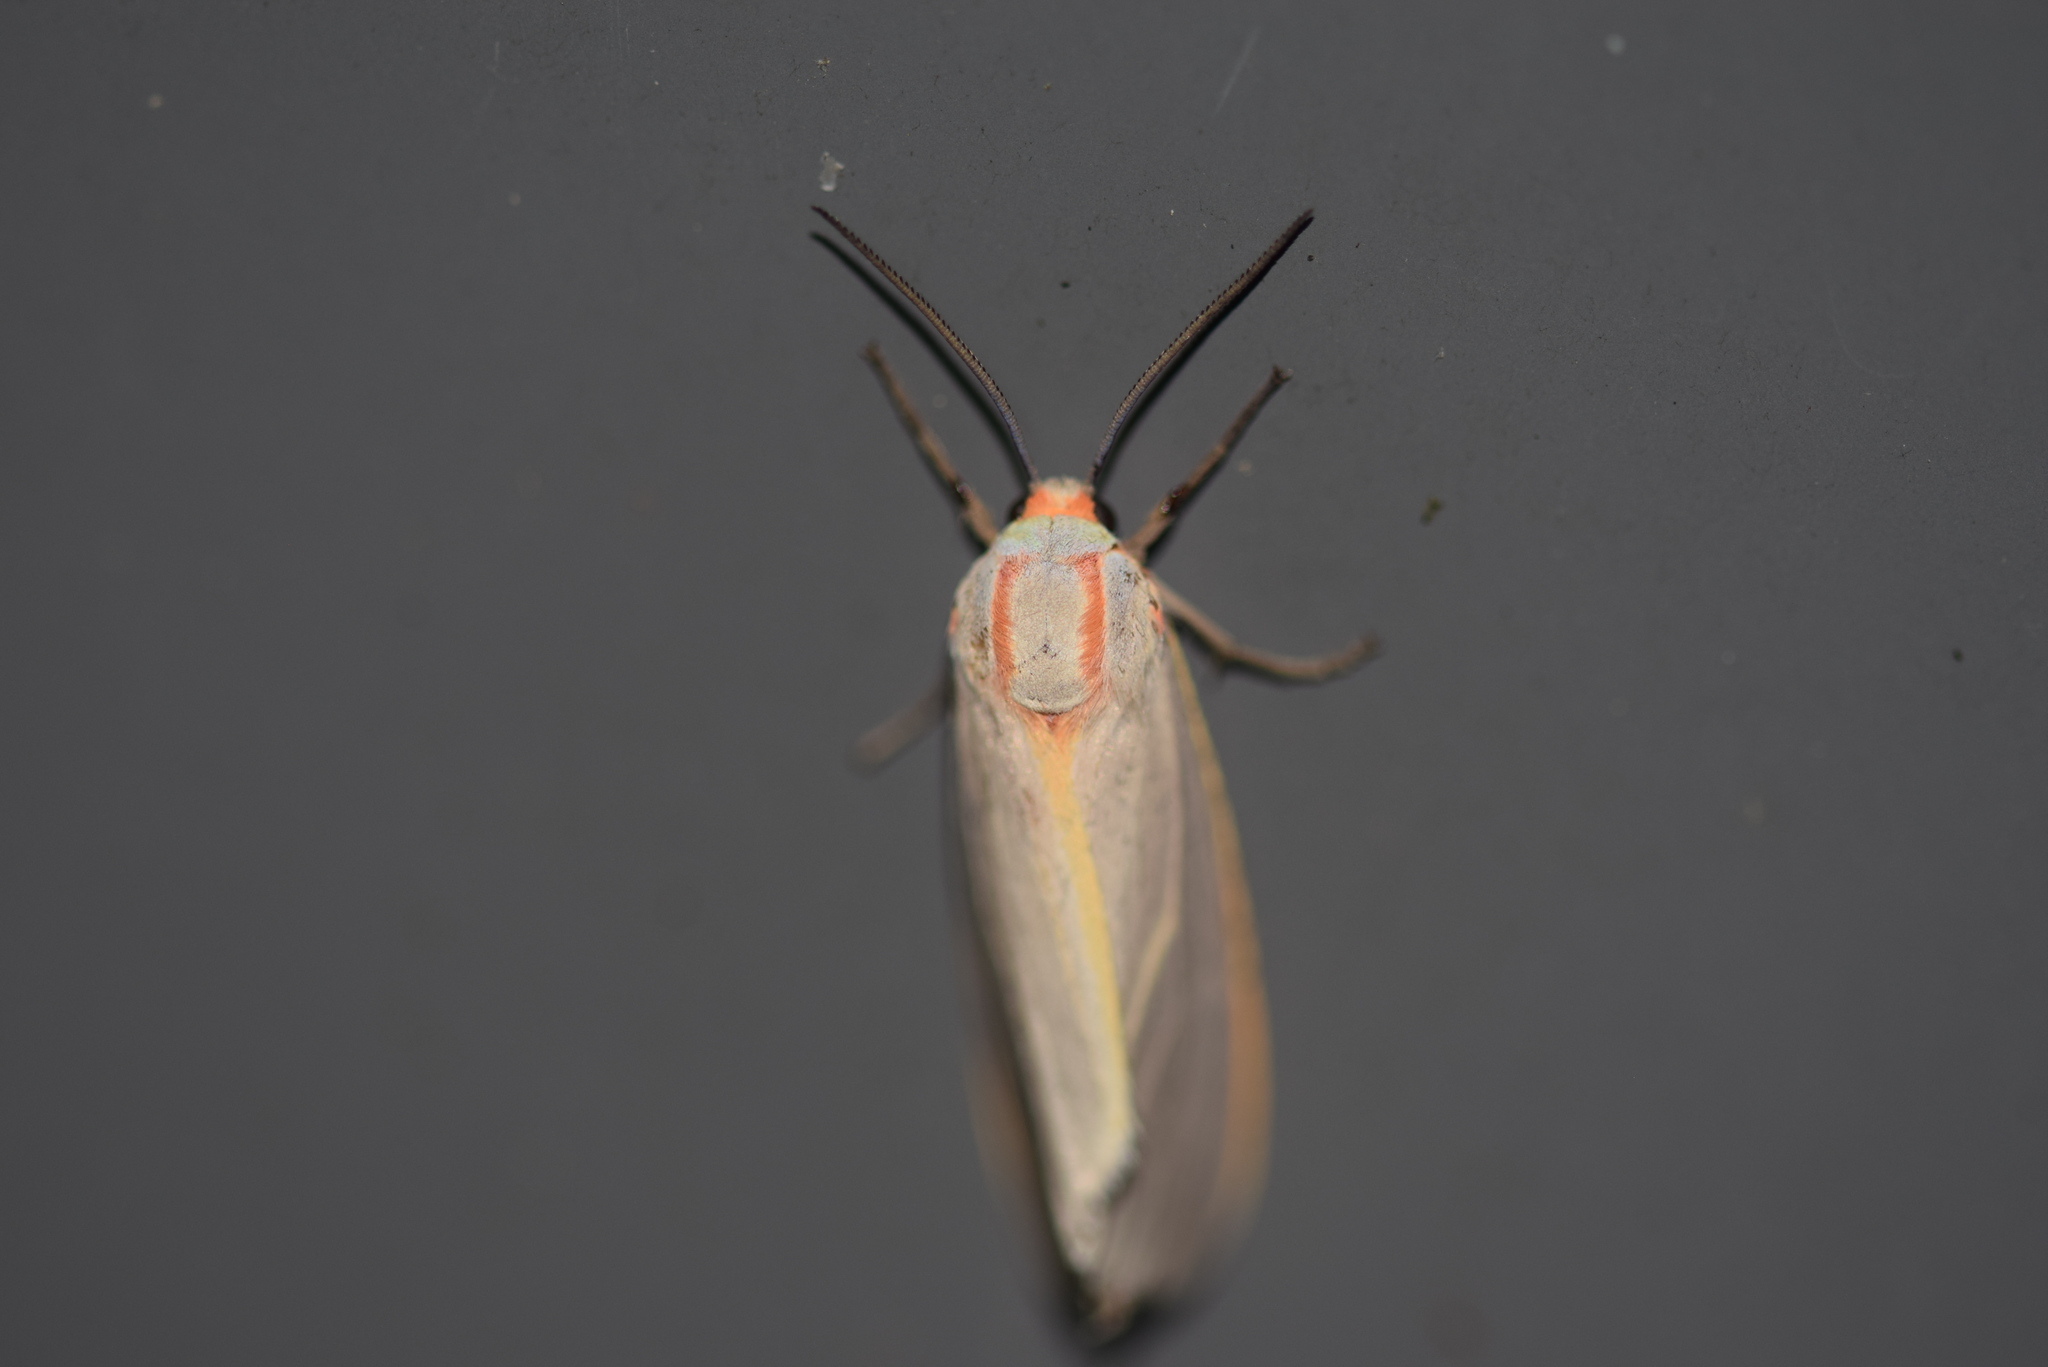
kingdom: Animalia
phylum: Arthropoda
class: Insecta
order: Lepidoptera
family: Erebidae
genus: Pygarctia
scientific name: Pygarctia abdominalis
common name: Yellow-edged pygarctia moth
